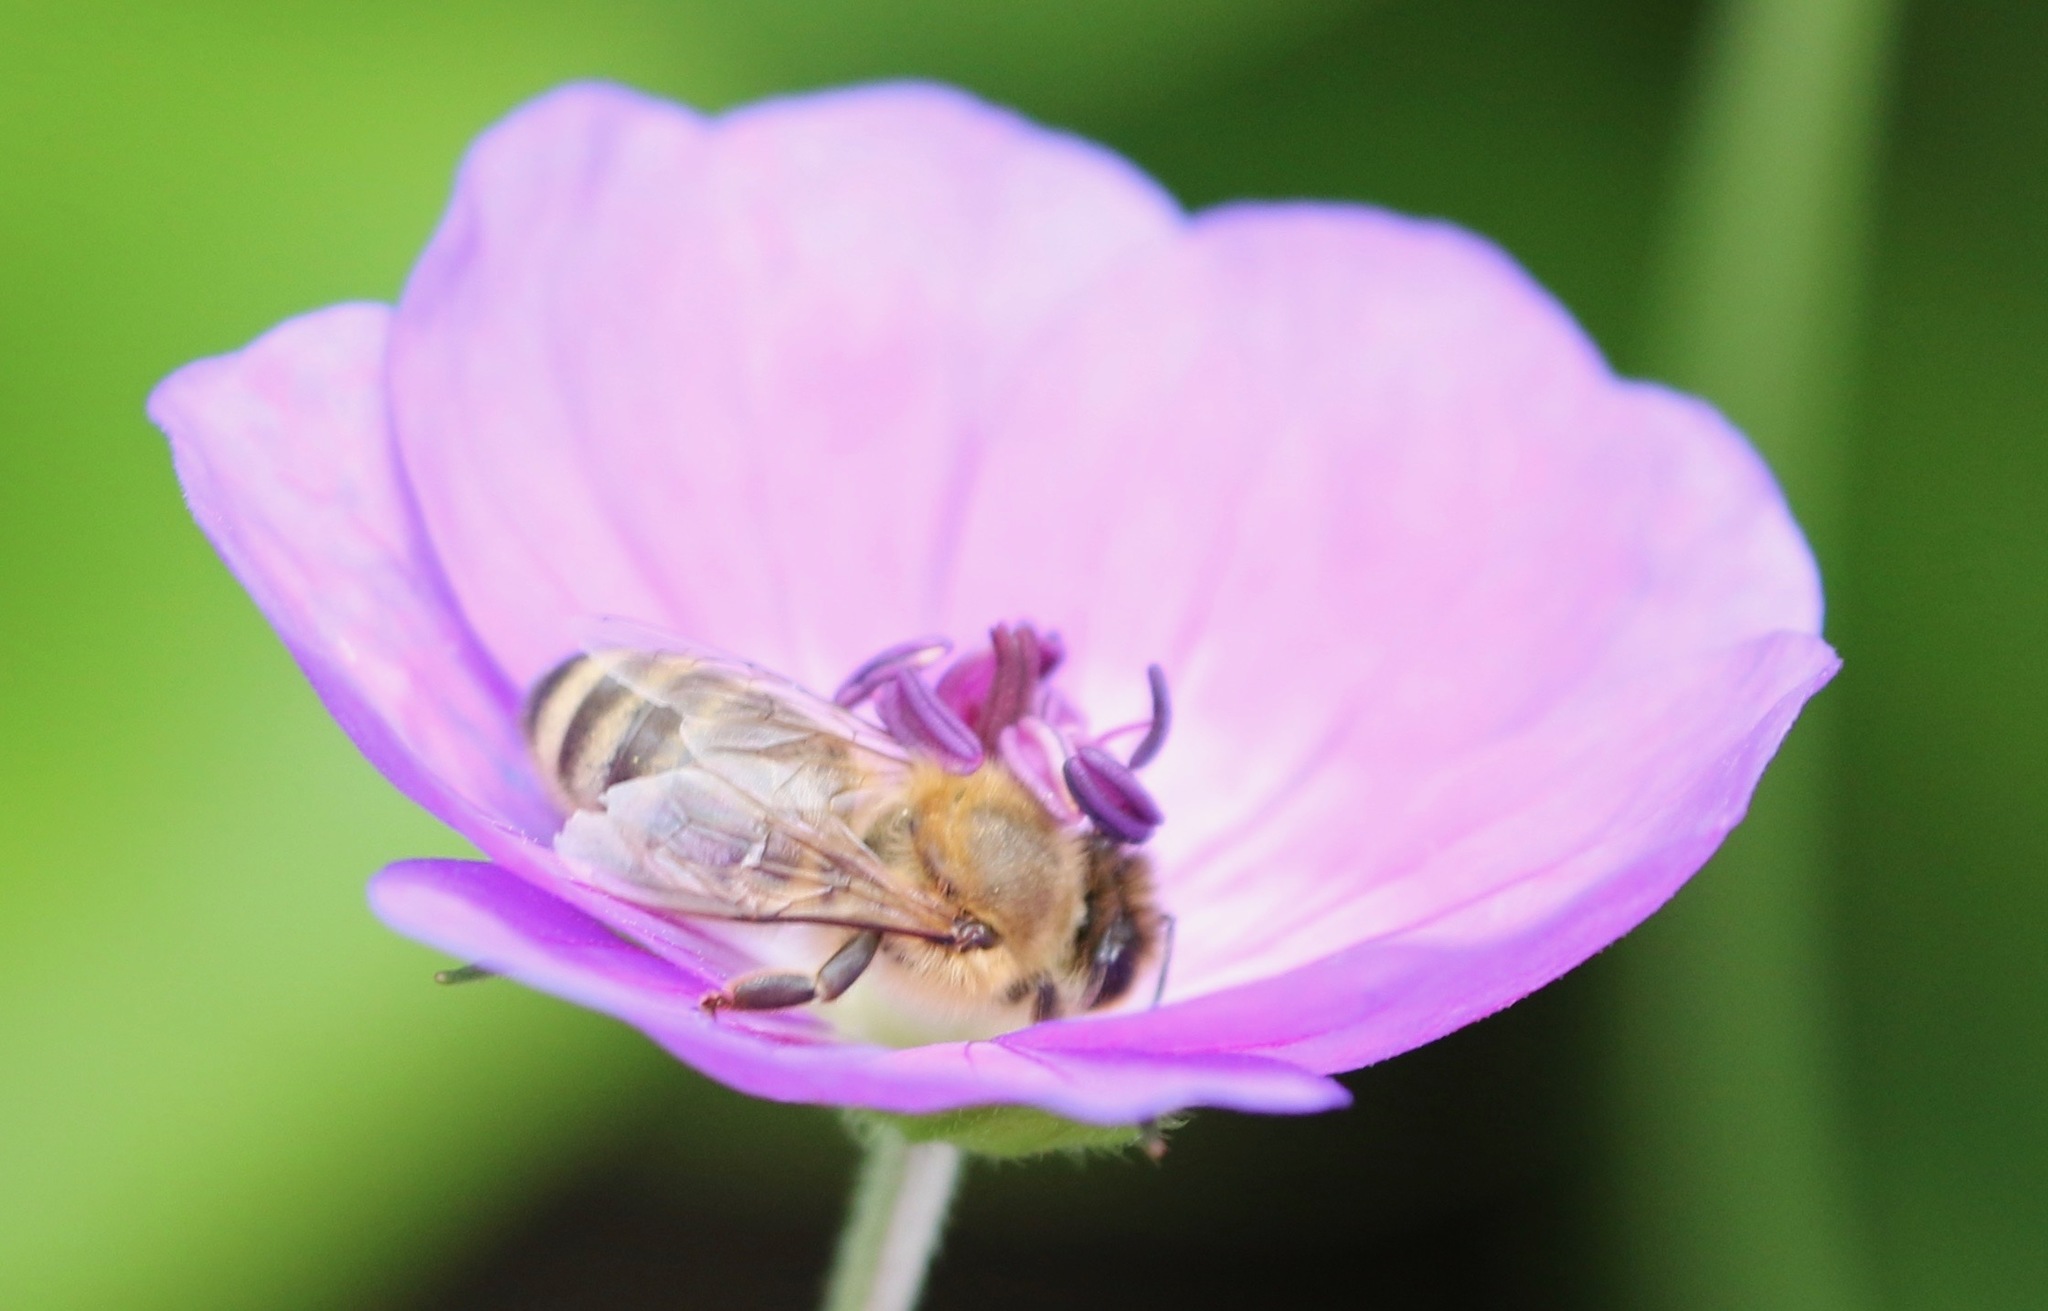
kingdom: Animalia
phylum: Arthropoda
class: Insecta
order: Hymenoptera
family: Apidae
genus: Apis
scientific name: Apis mellifera
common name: Honey bee
